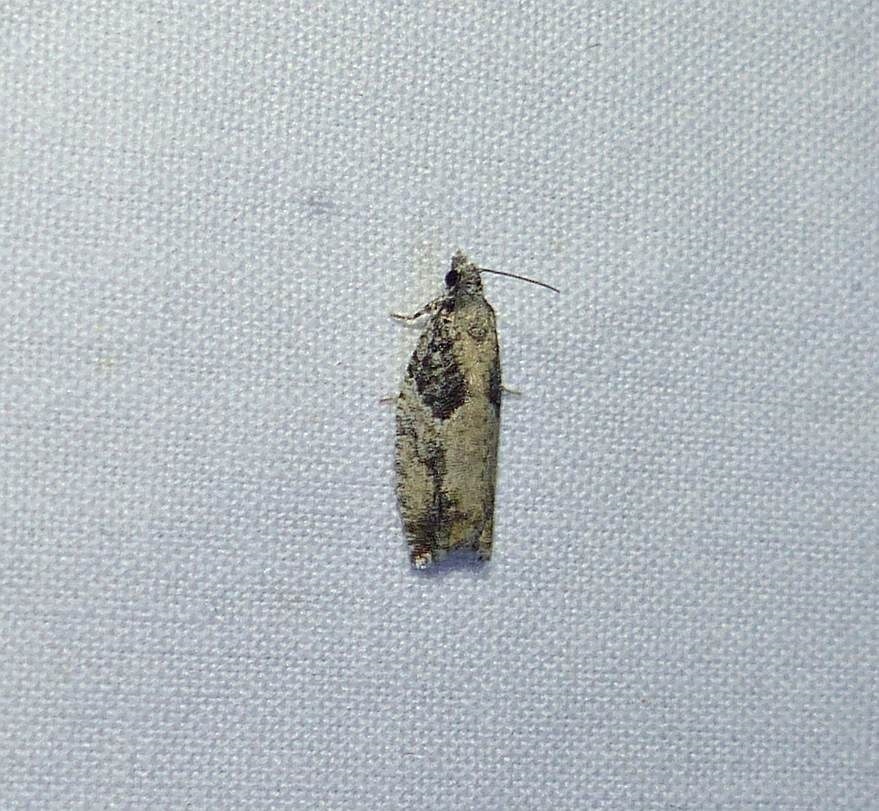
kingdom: Animalia
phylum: Arthropoda
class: Insecta
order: Lepidoptera
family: Tortricidae
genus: Epinotia
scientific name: Epinotia cinereana
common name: Grey aspen bell
